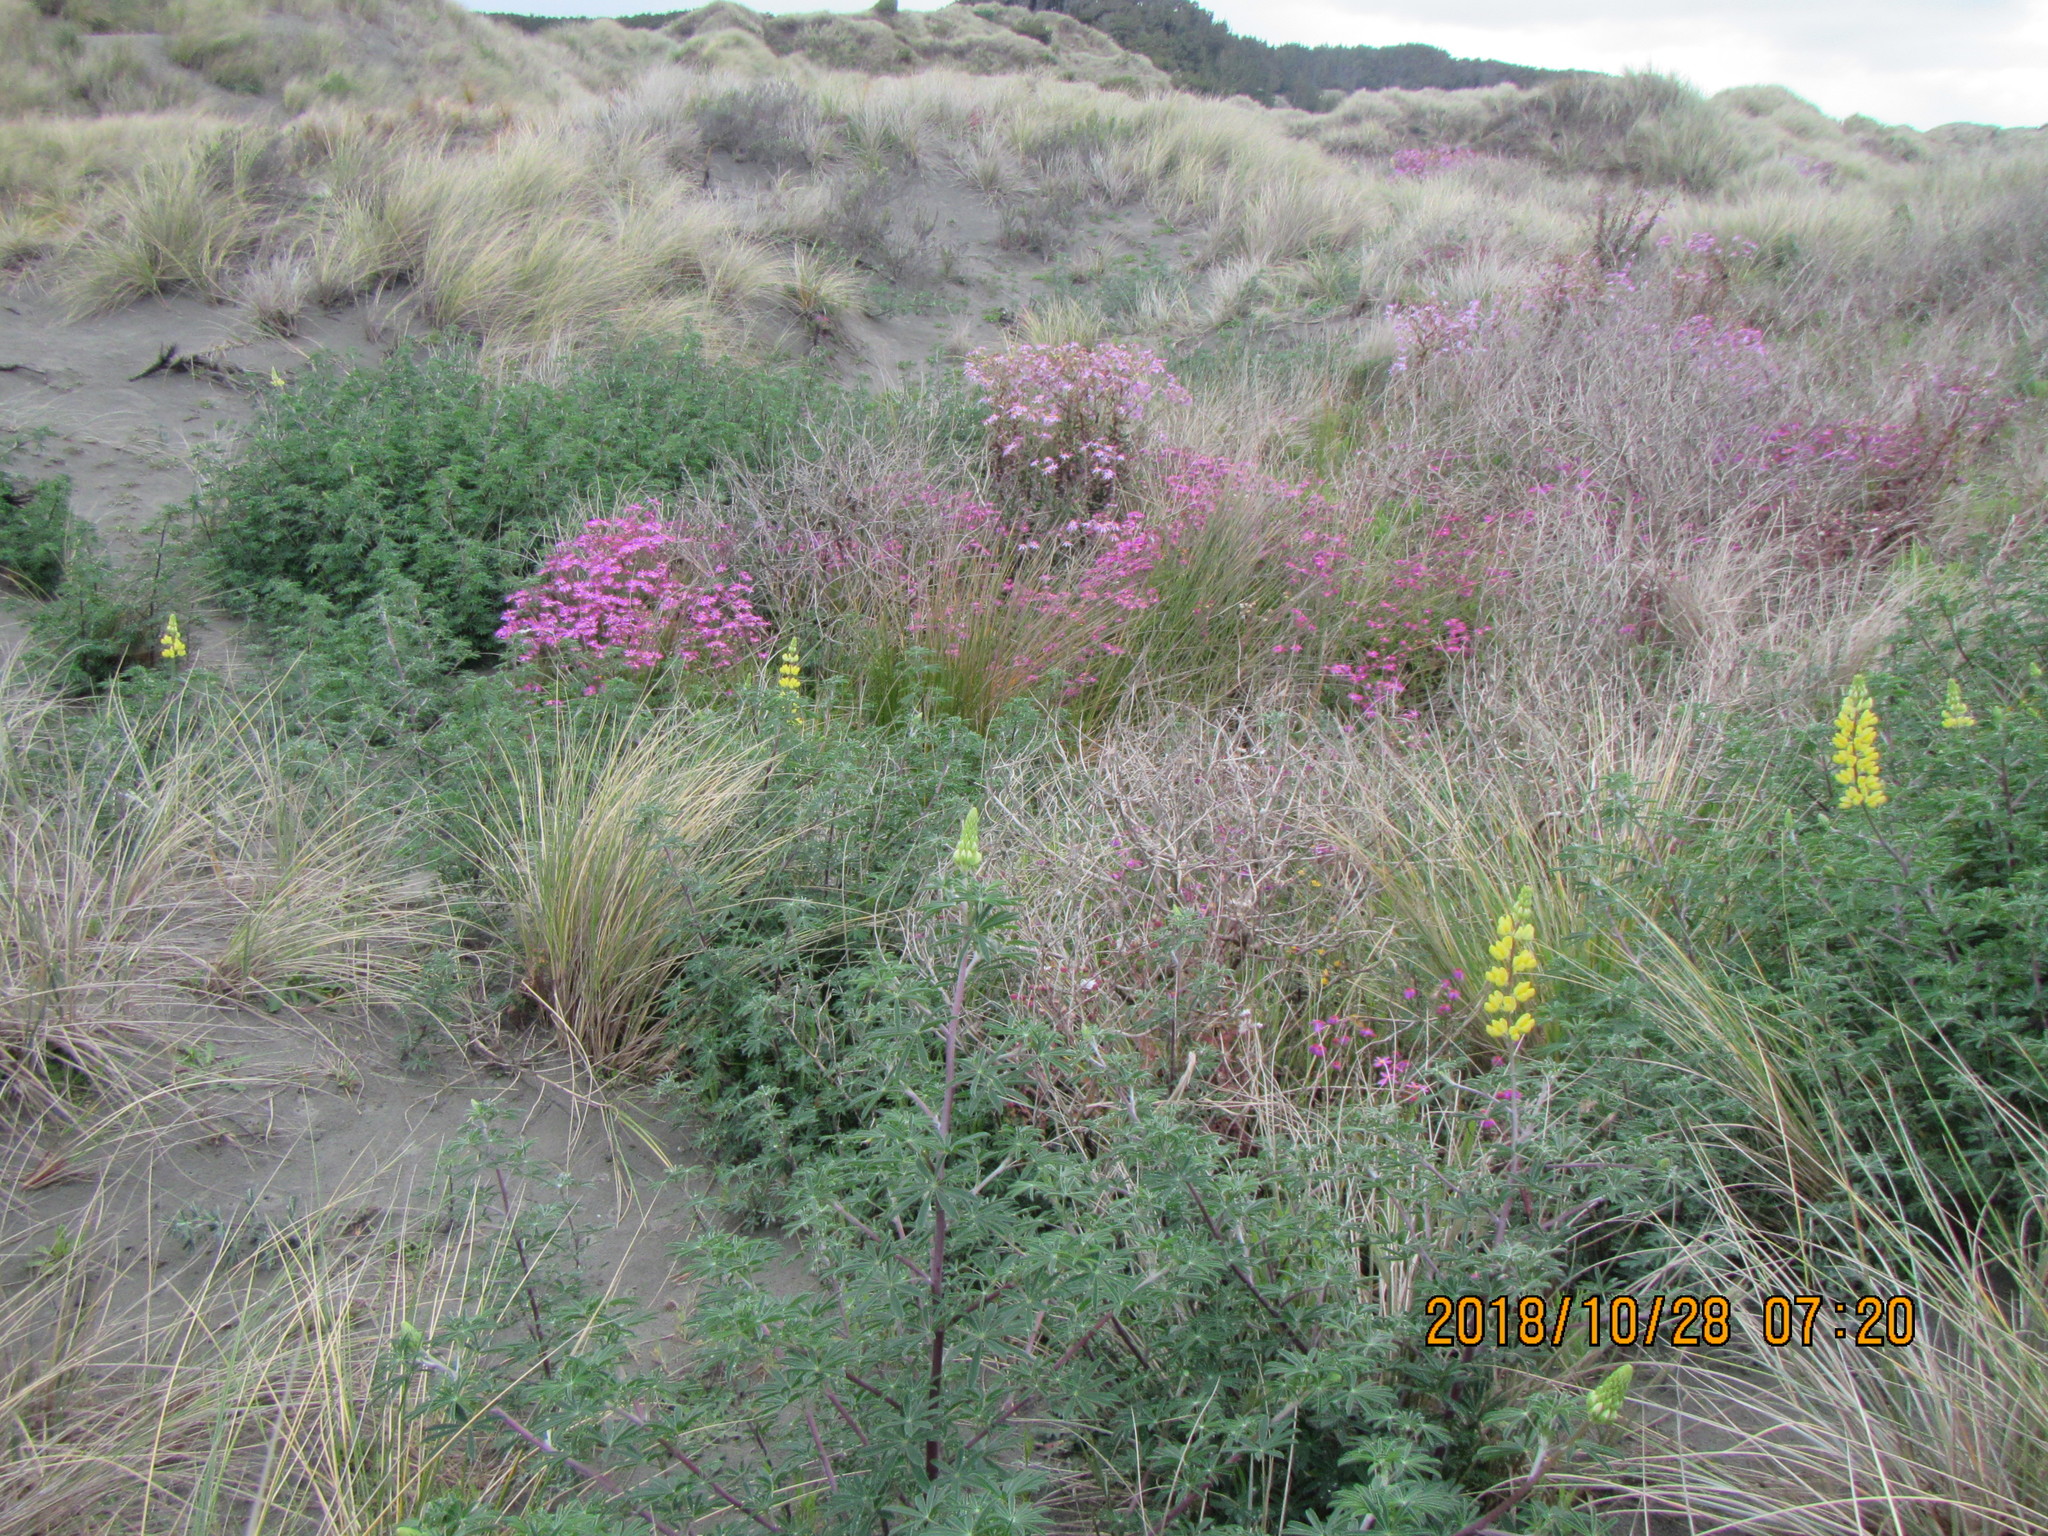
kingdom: Plantae
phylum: Tracheophyta
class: Magnoliopsida
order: Fabales
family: Fabaceae
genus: Lupinus
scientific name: Lupinus arboreus
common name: Yellow bush lupine
